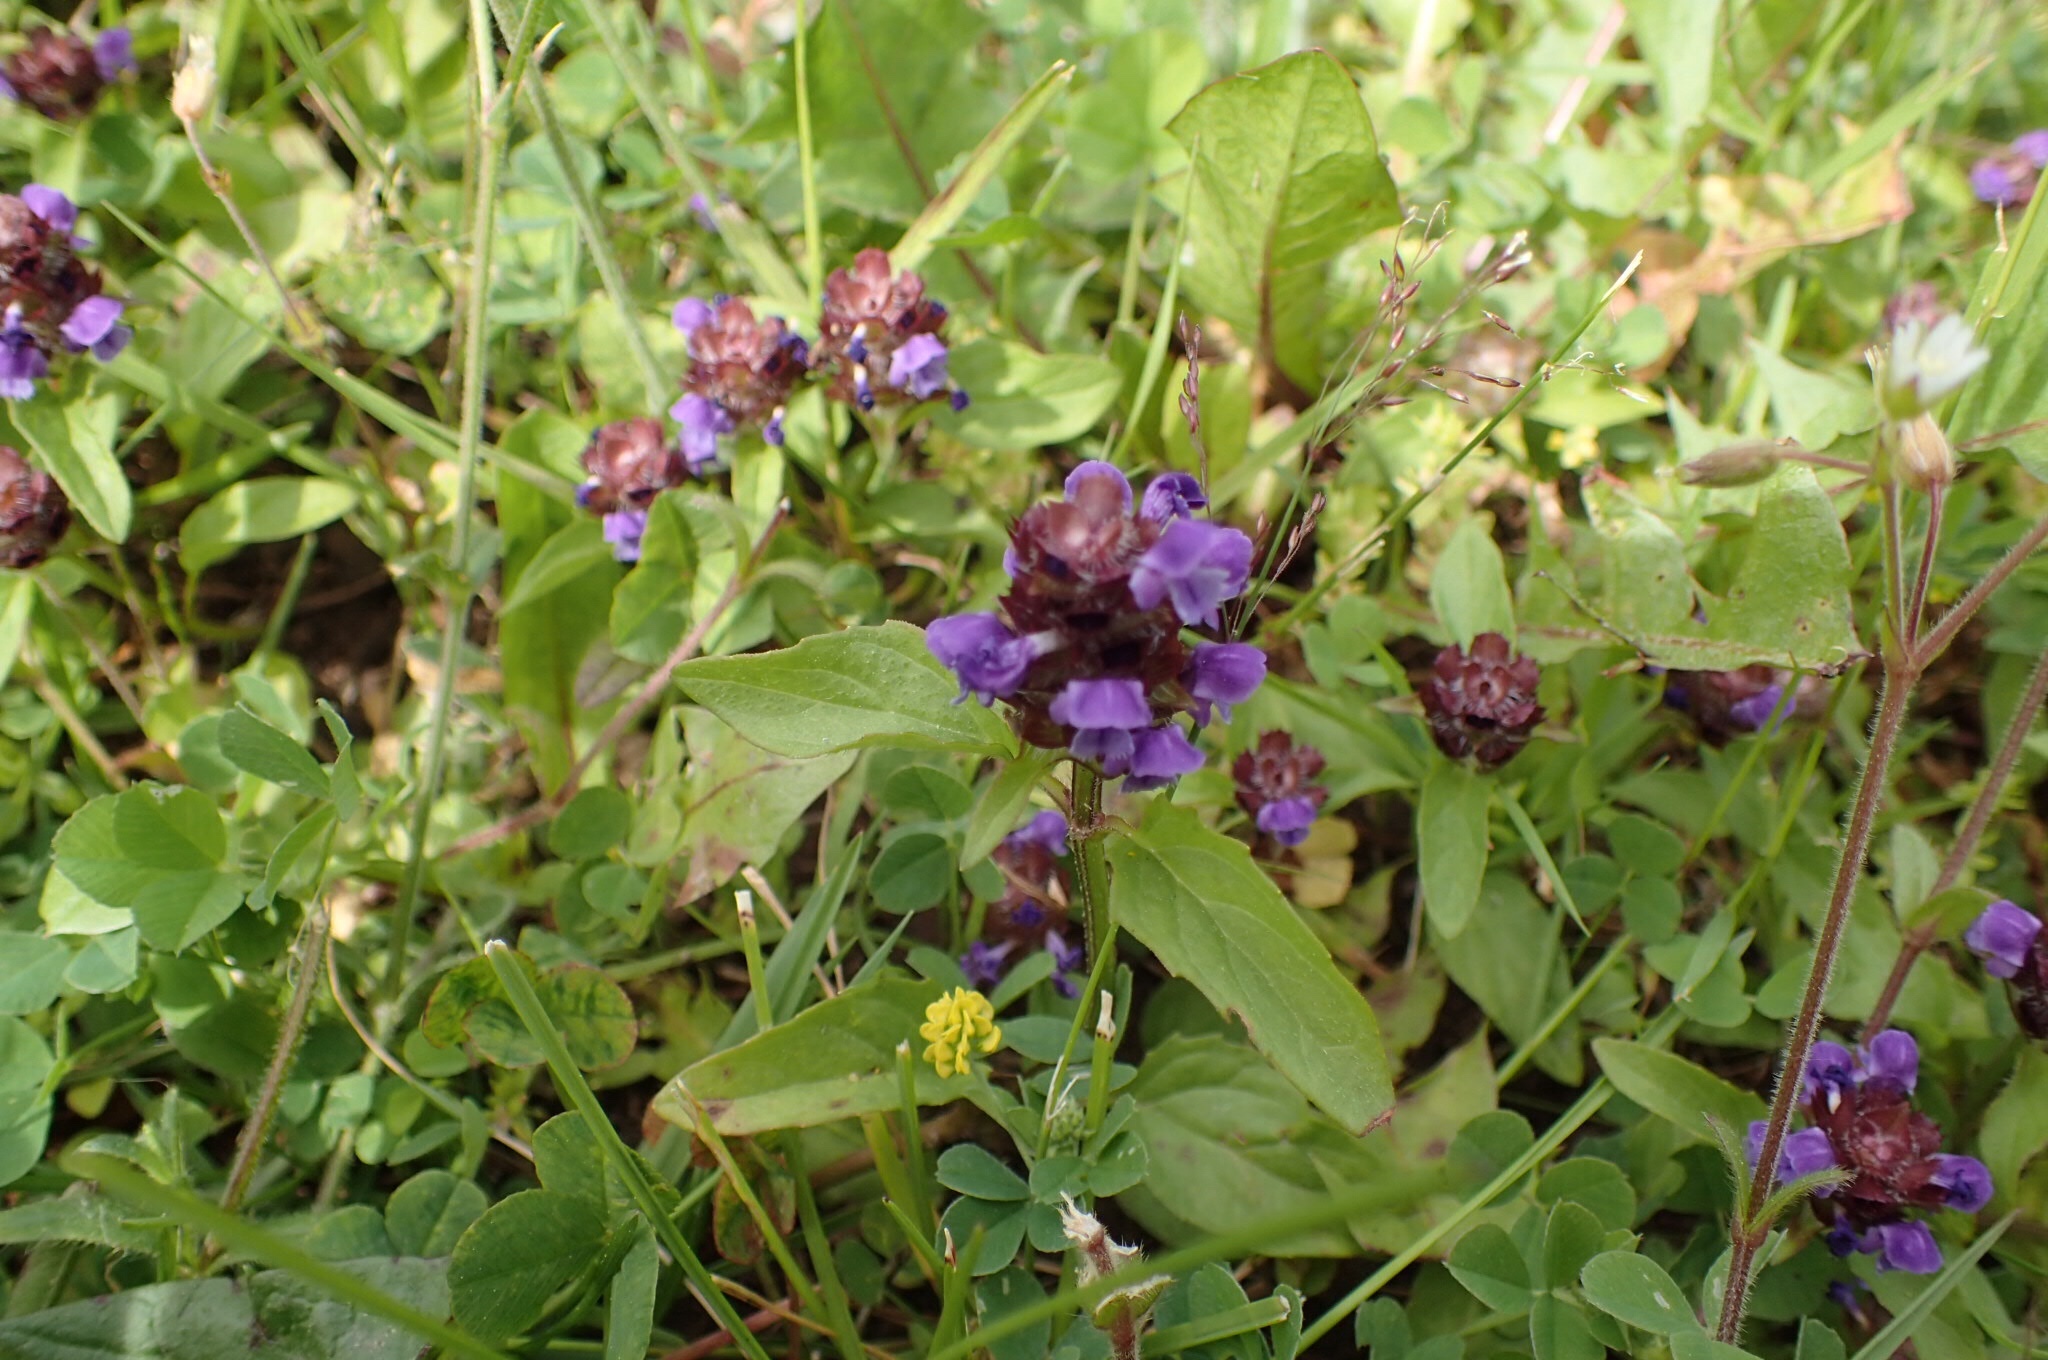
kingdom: Plantae
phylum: Tracheophyta
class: Magnoliopsida
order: Lamiales
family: Lamiaceae
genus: Prunella
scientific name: Prunella vulgaris
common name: Heal-all
